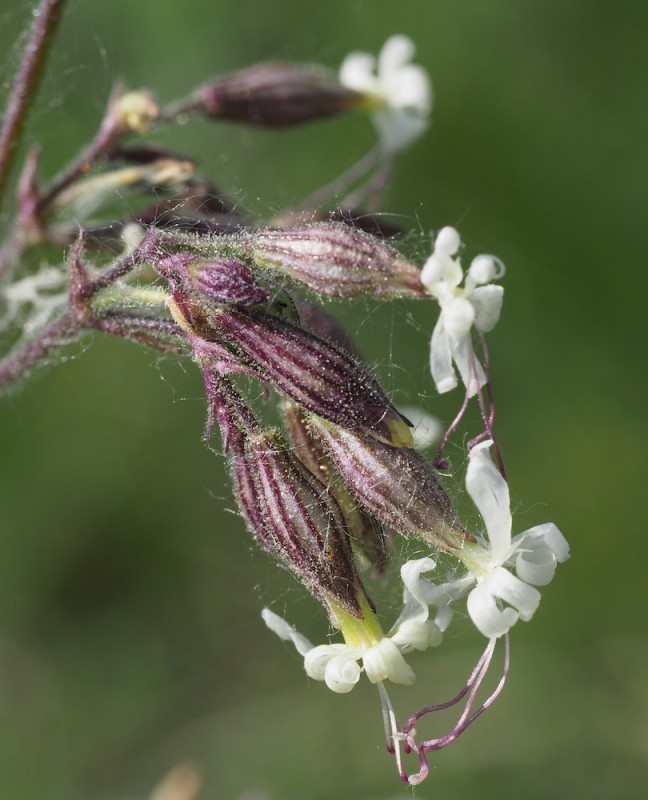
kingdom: Plantae
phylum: Tracheophyta
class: Magnoliopsida
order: Caryophyllales
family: Caryophyllaceae
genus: Silene
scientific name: Silene nutans
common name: Nottingham catchfly
